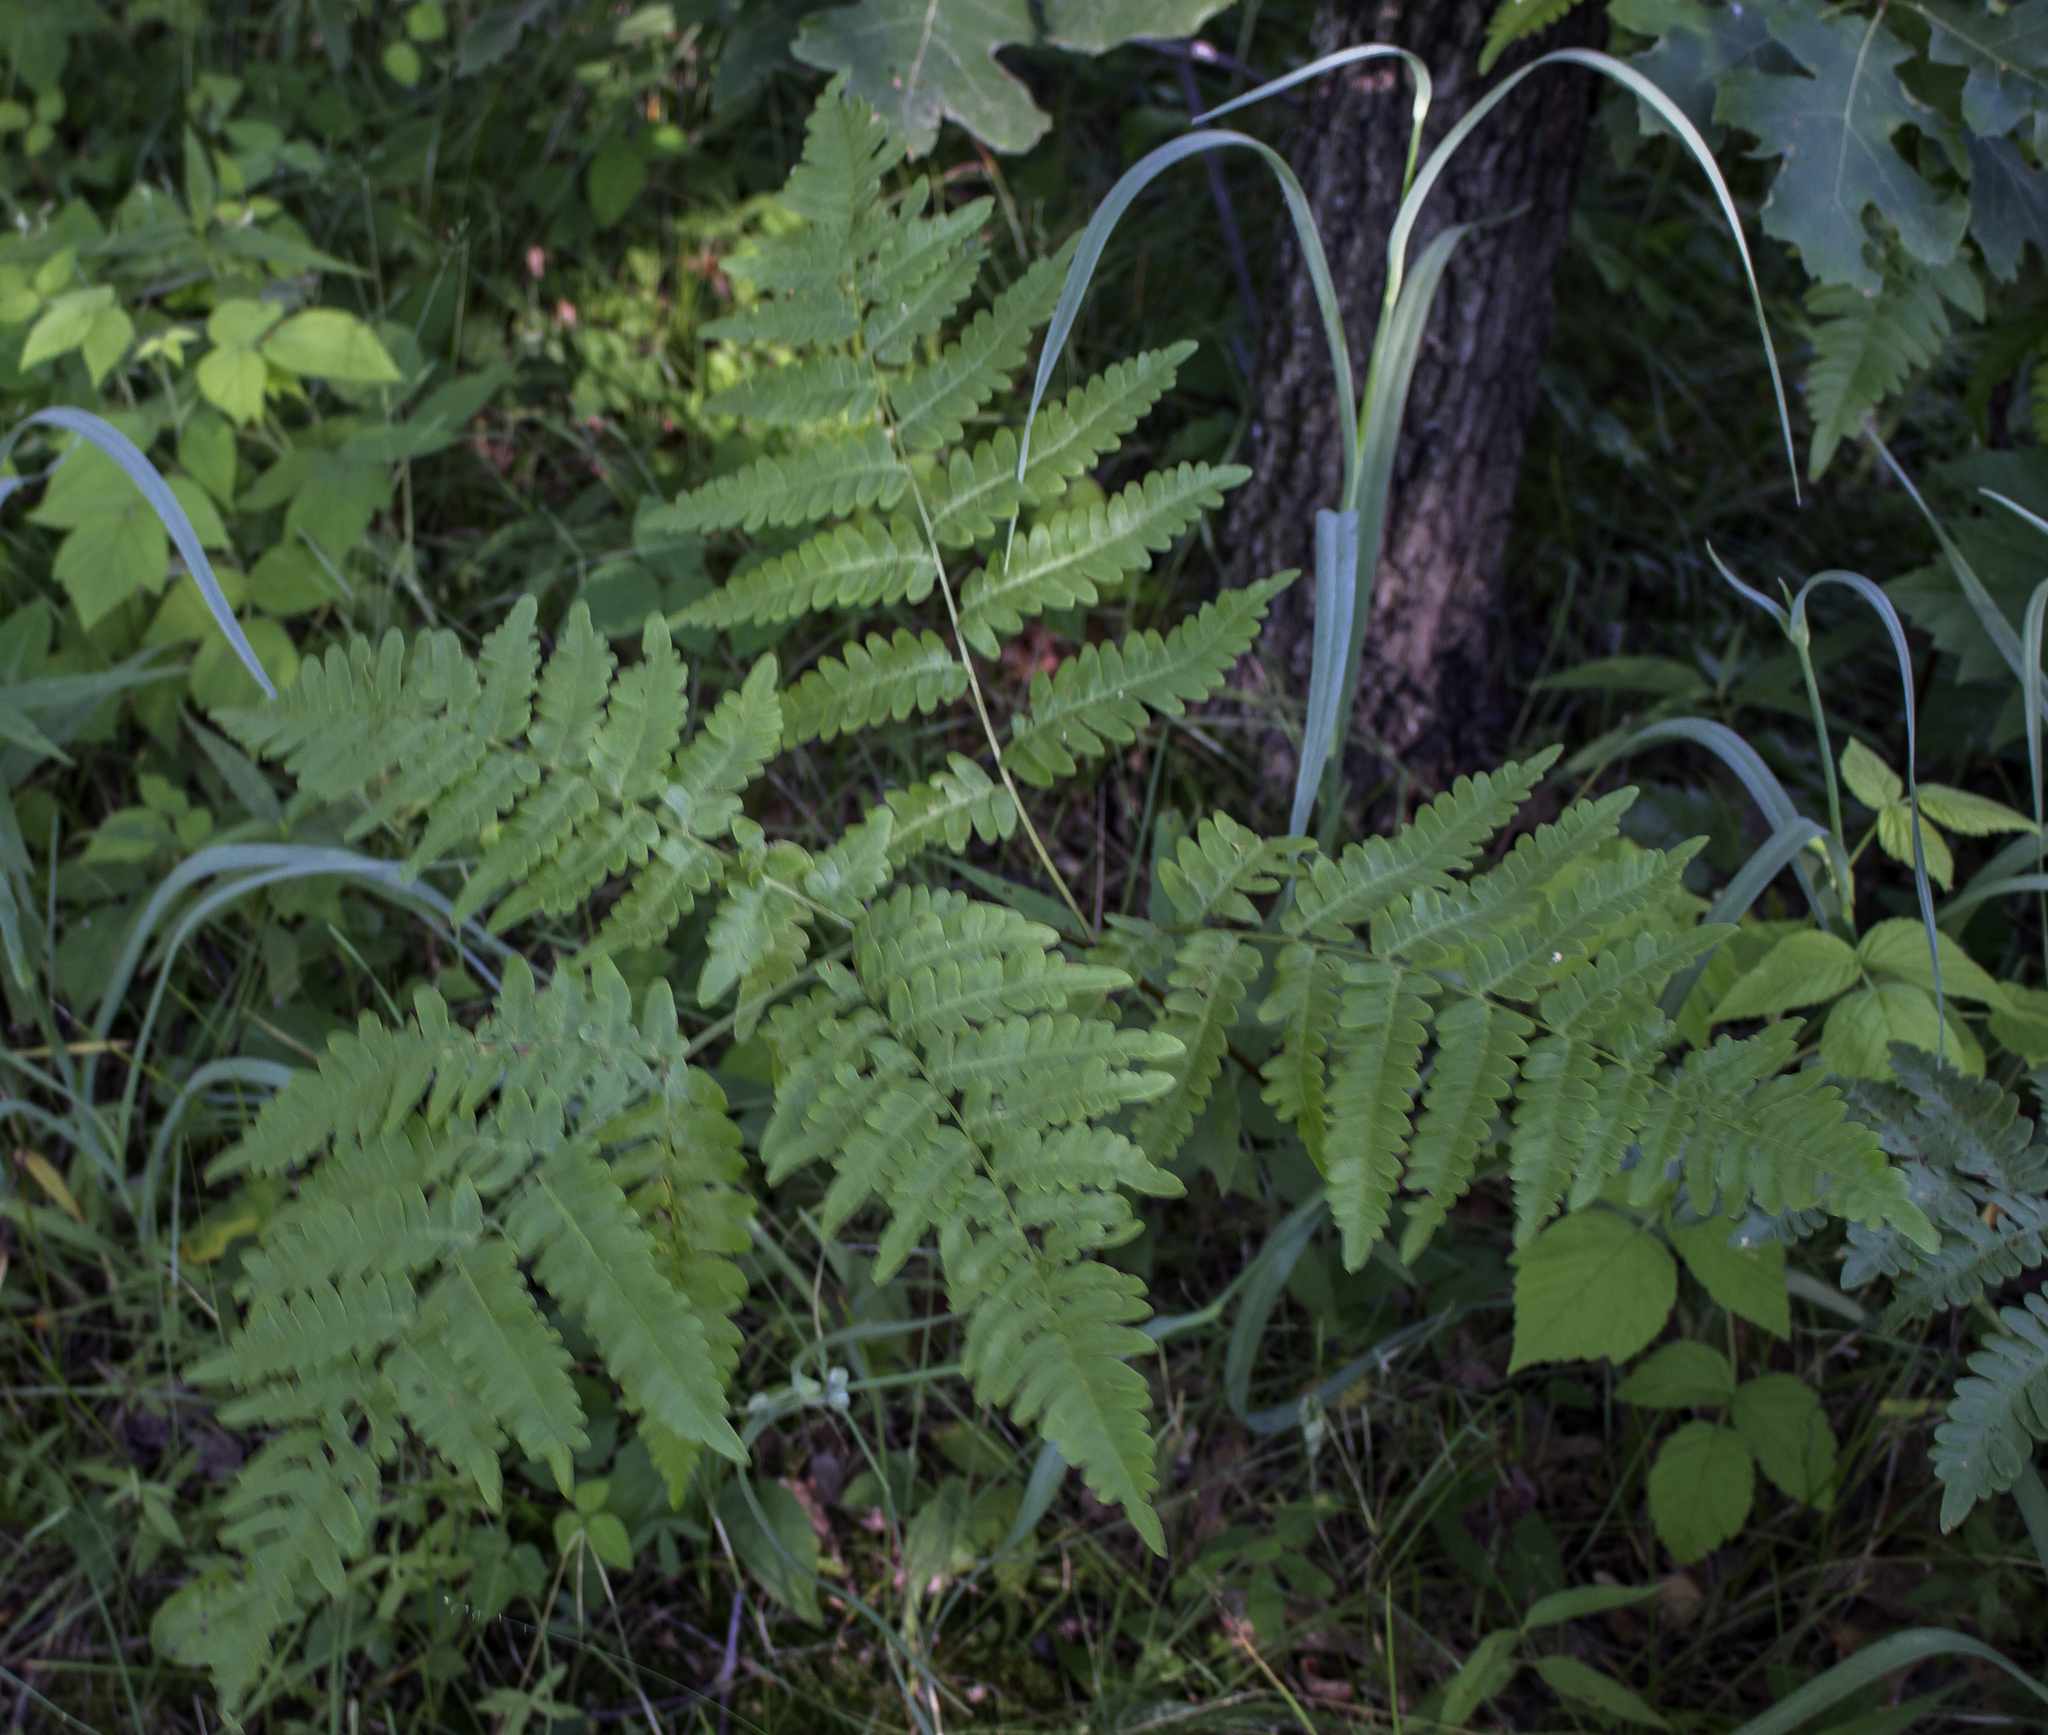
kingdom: Plantae
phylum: Tracheophyta
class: Polypodiopsida
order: Polypodiales
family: Dennstaedtiaceae
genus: Pteridium
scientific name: Pteridium aquilinum
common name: Bracken
